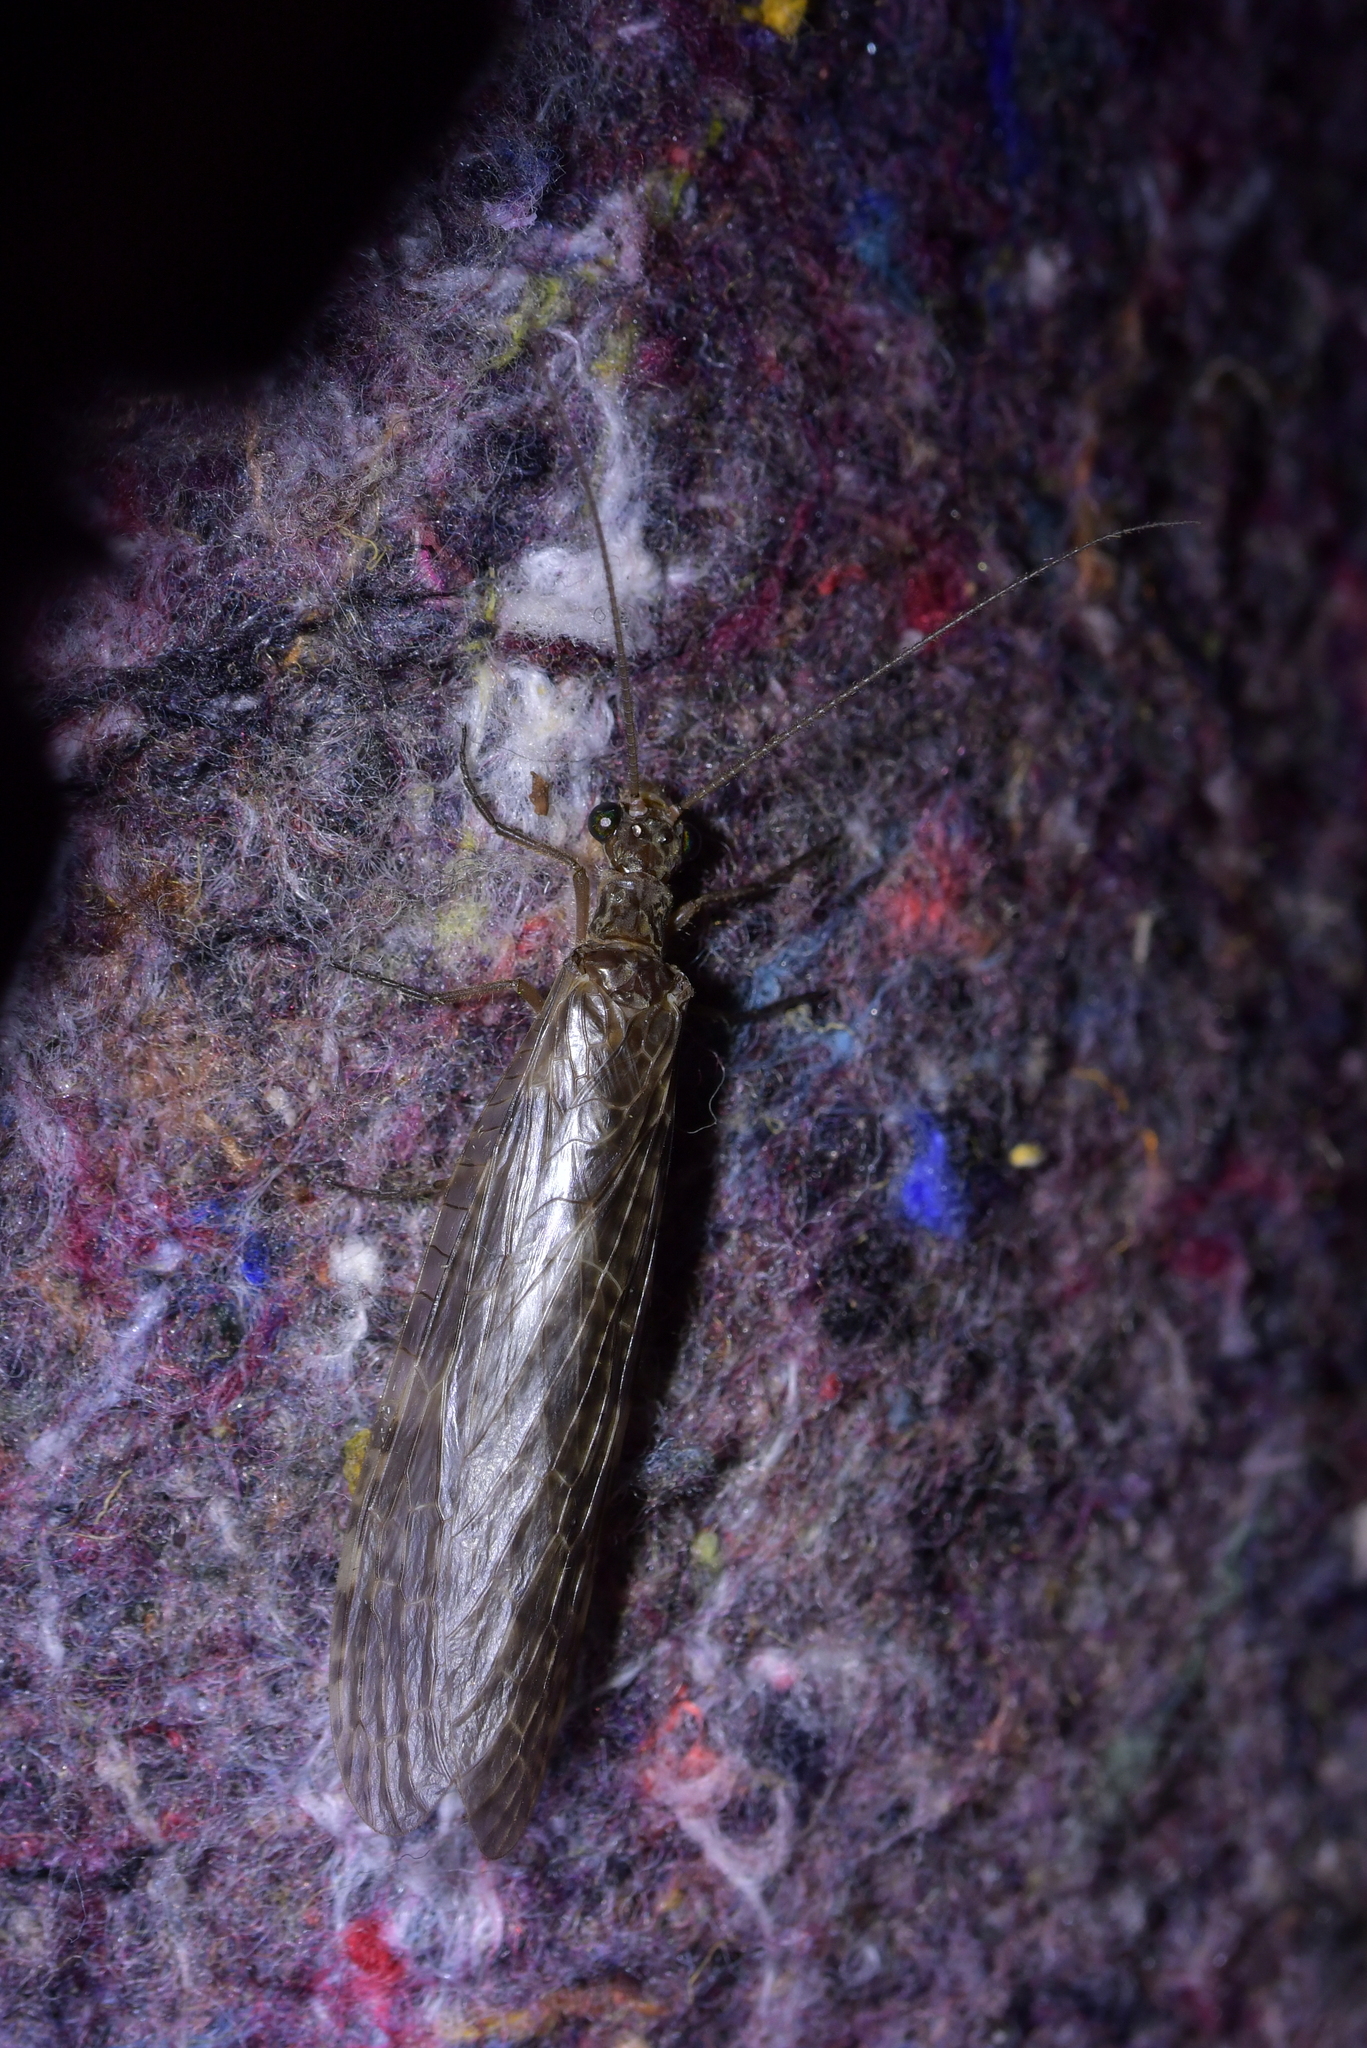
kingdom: Animalia
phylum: Arthropoda
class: Insecta
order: Megaloptera
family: Corydalidae
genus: Archichauliodes
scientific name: Archichauliodes diversus
